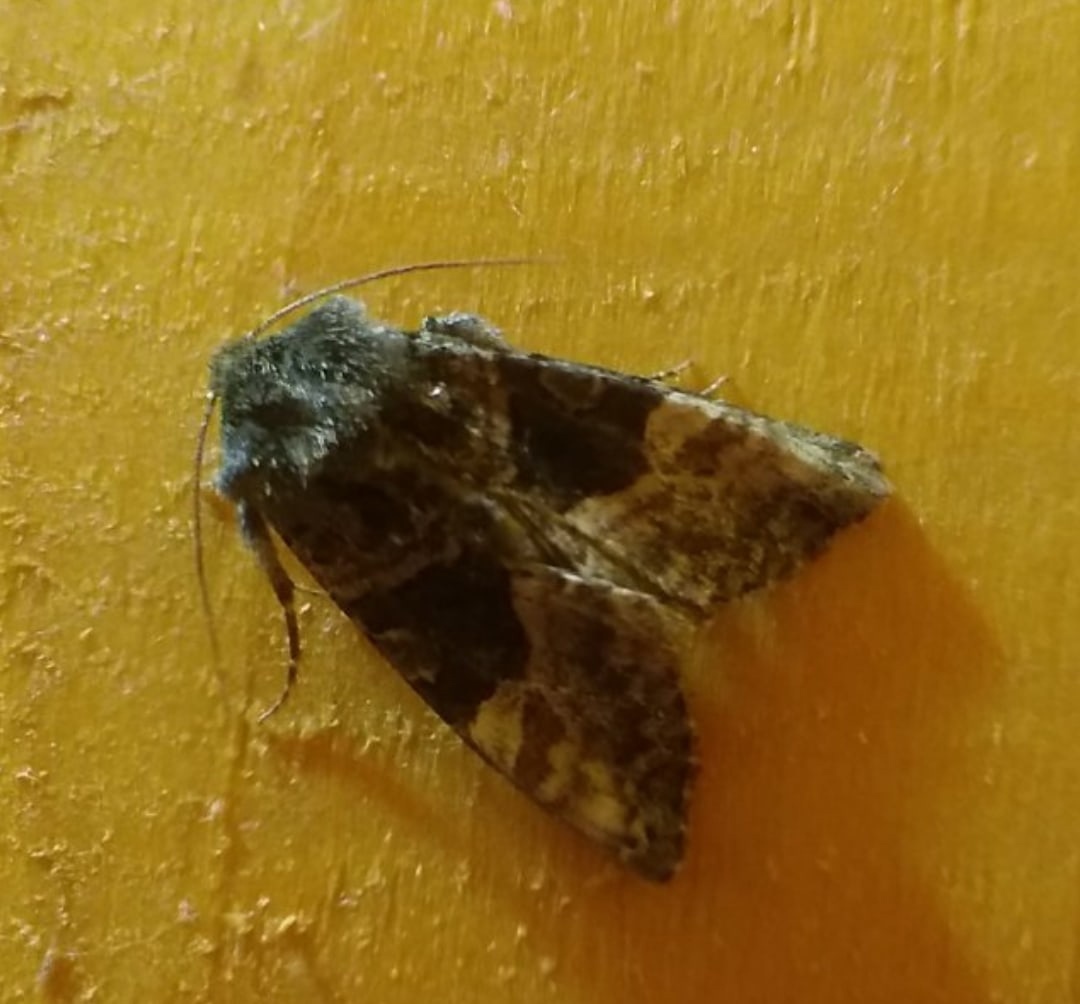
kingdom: Animalia
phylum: Arthropoda
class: Insecta
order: Lepidoptera
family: Noctuidae
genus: Euplexia
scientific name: Euplexia lucipara
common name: Small angle shades
